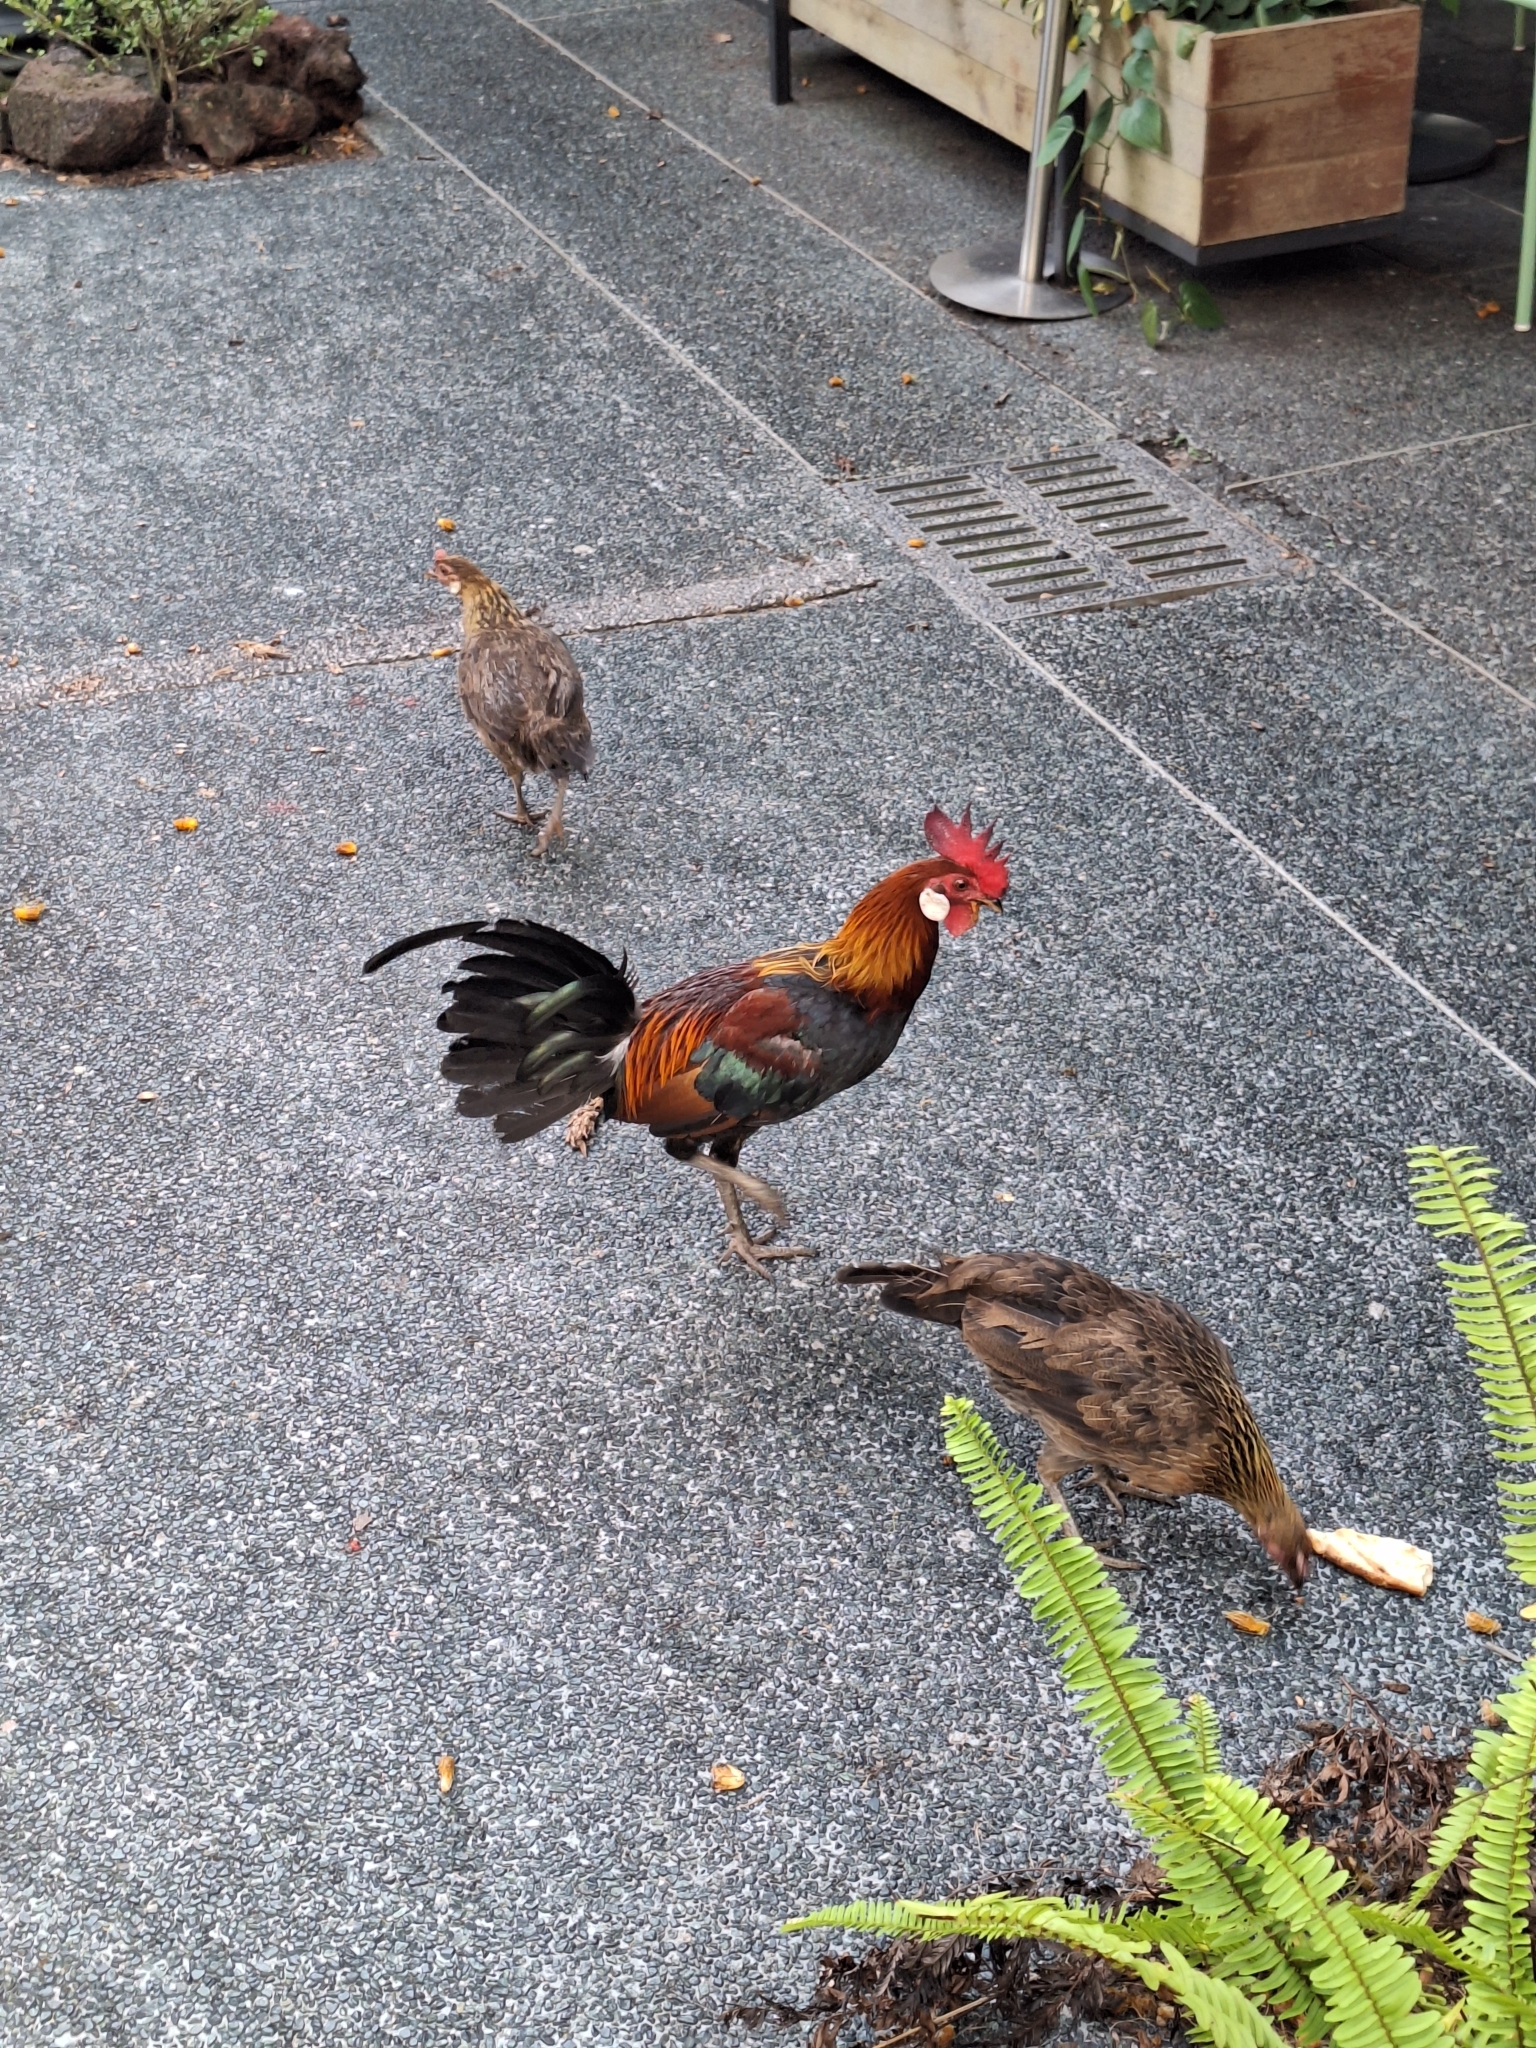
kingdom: Animalia
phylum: Chordata
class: Aves
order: Galliformes
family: Phasianidae
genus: Gallus
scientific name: Gallus gallus
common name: Red junglefowl
